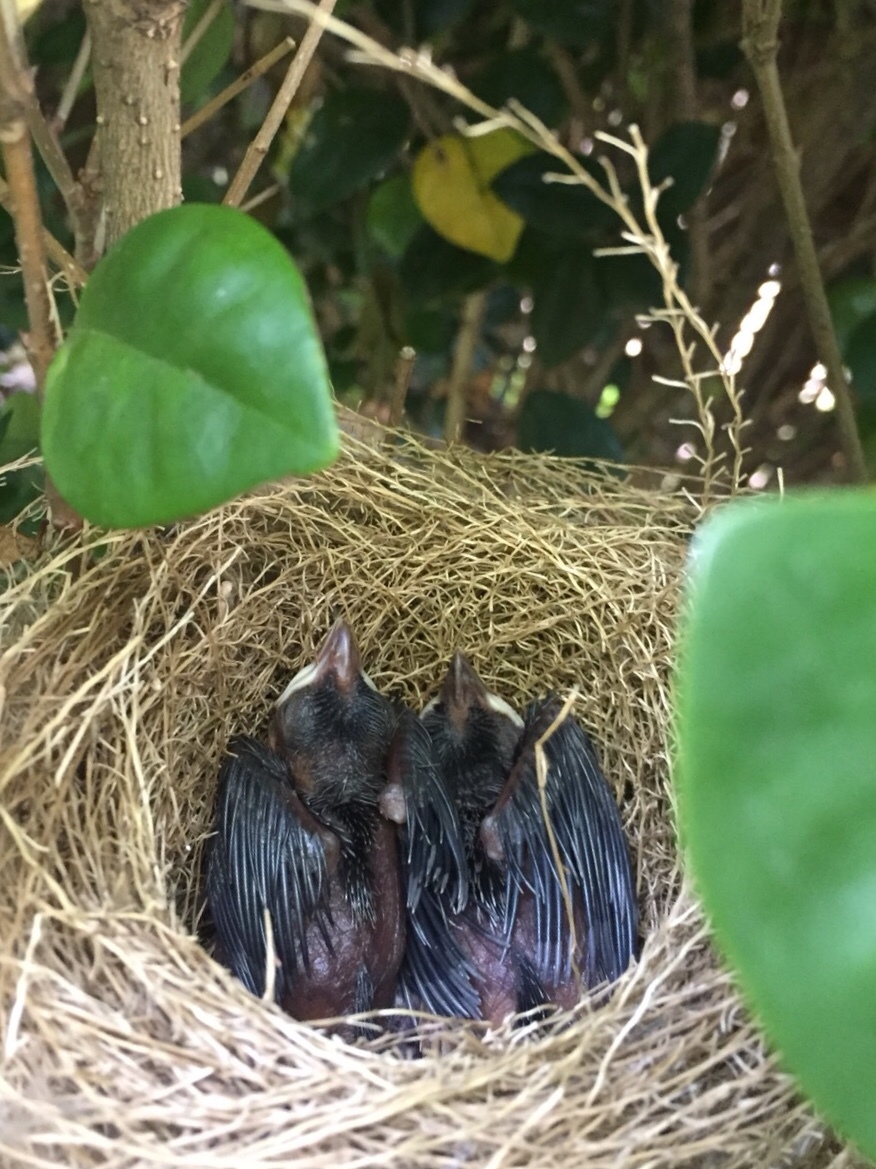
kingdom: Animalia
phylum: Chordata
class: Aves
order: Passeriformes
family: Dicruridae
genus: Dicrurus
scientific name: Dicrurus macrocercus
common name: Black drongo
